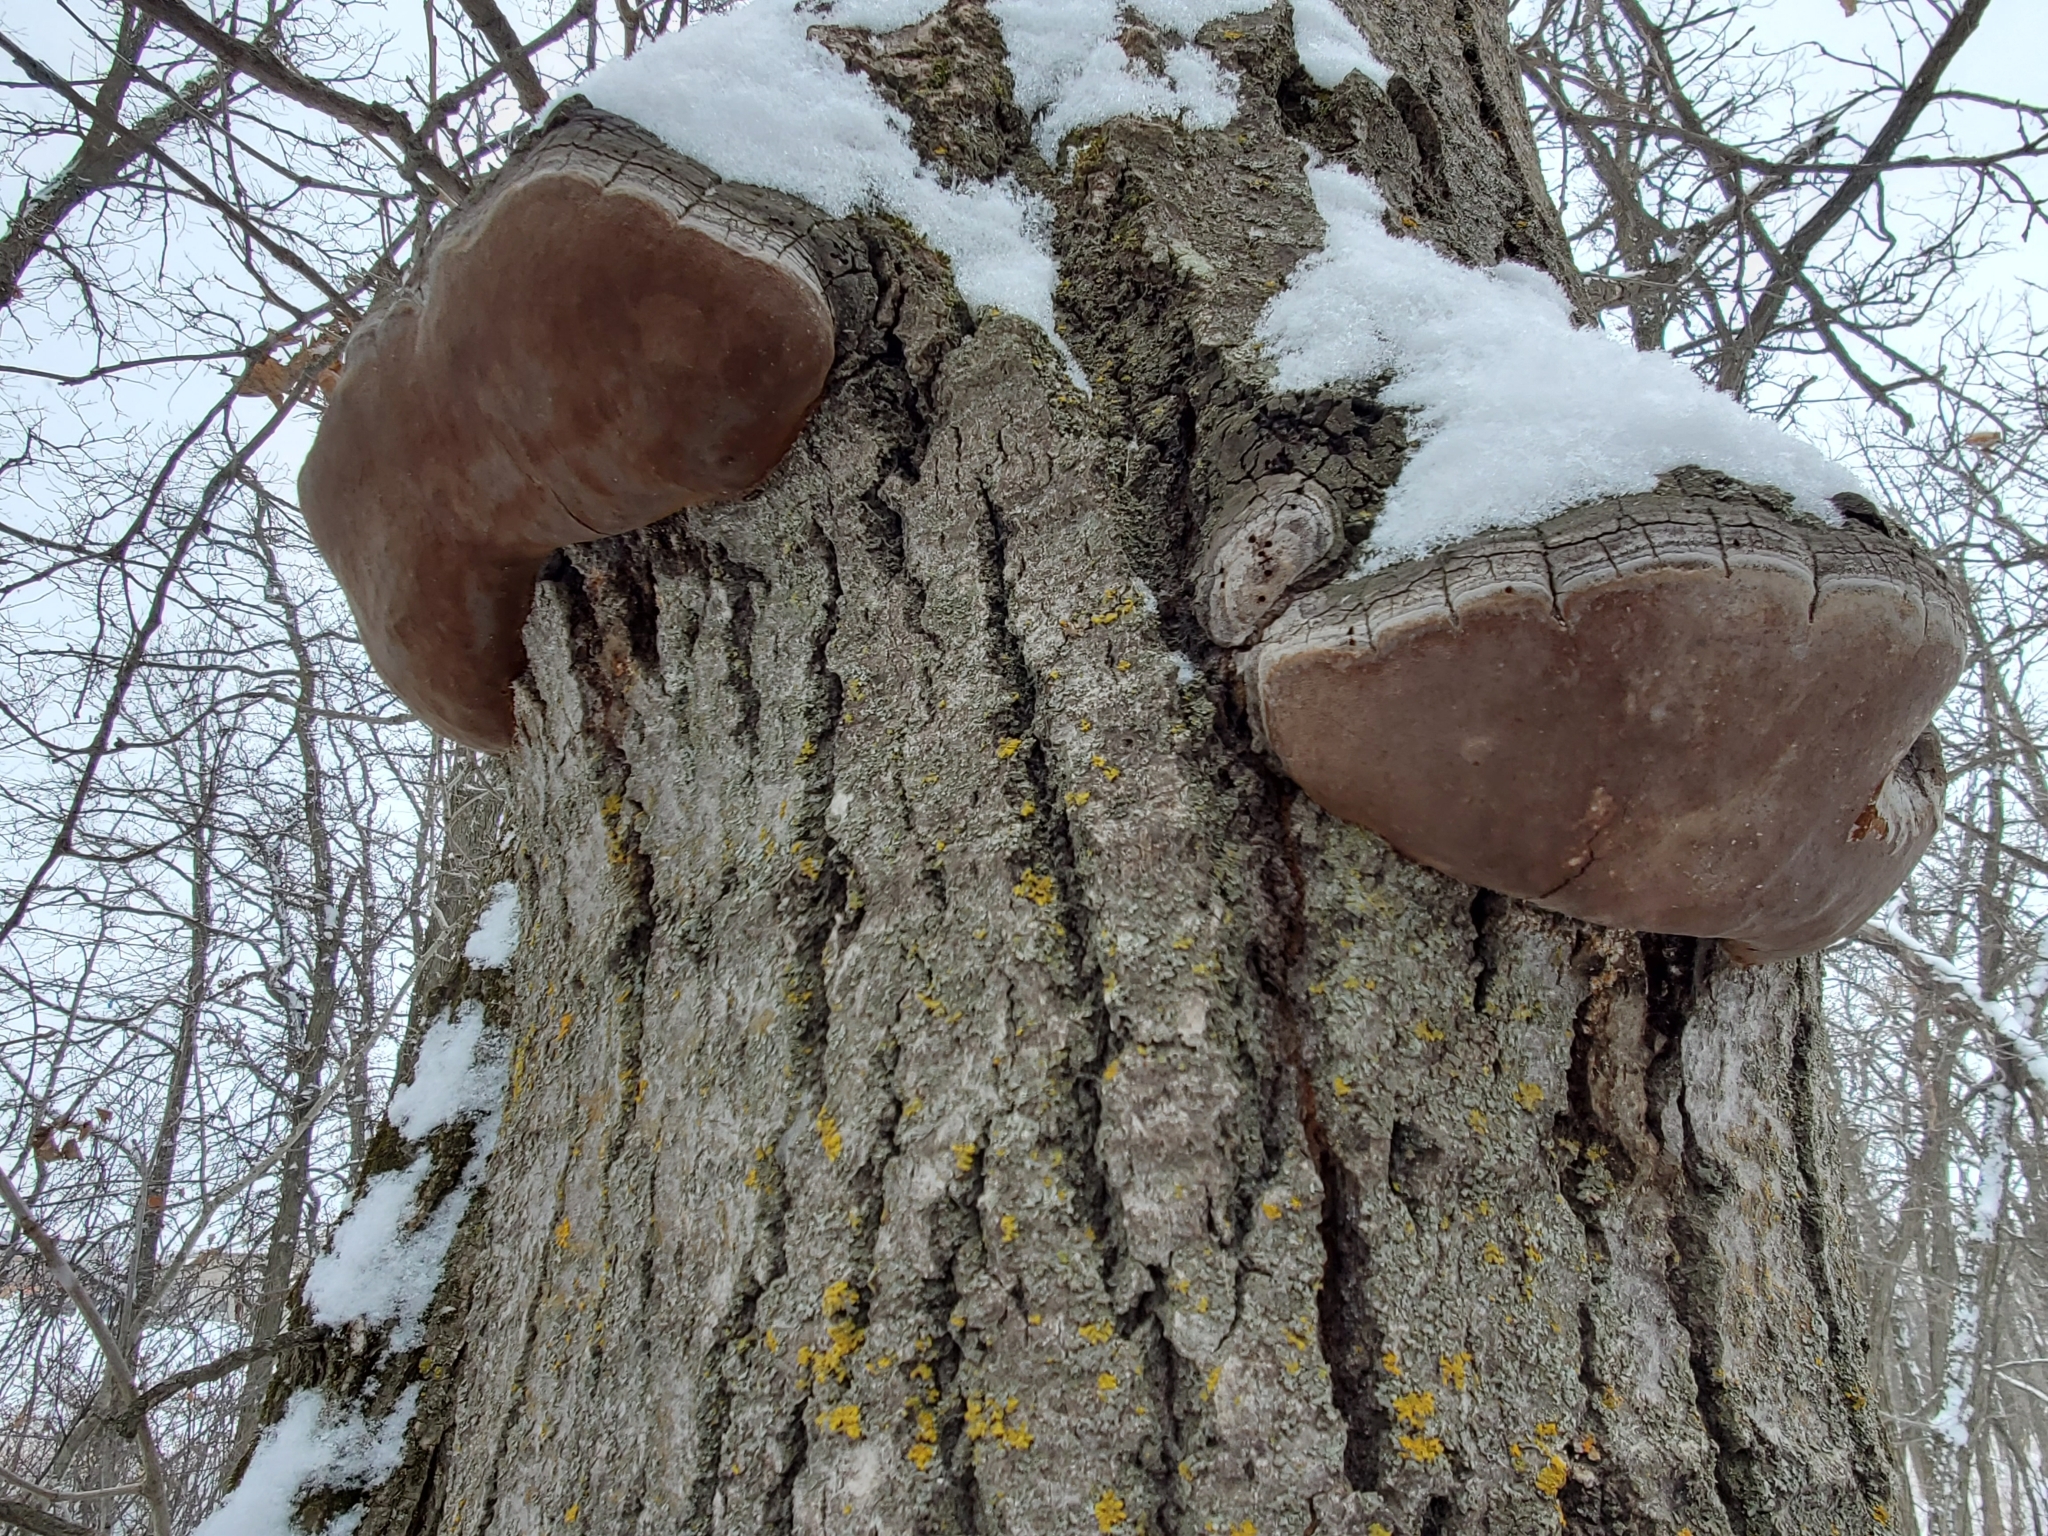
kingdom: Fungi
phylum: Basidiomycota
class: Agaricomycetes
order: Hymenochaetales
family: Hymenochaetaceae
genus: Phellinus
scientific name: Phellinus tremulae
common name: Aspen bracket
